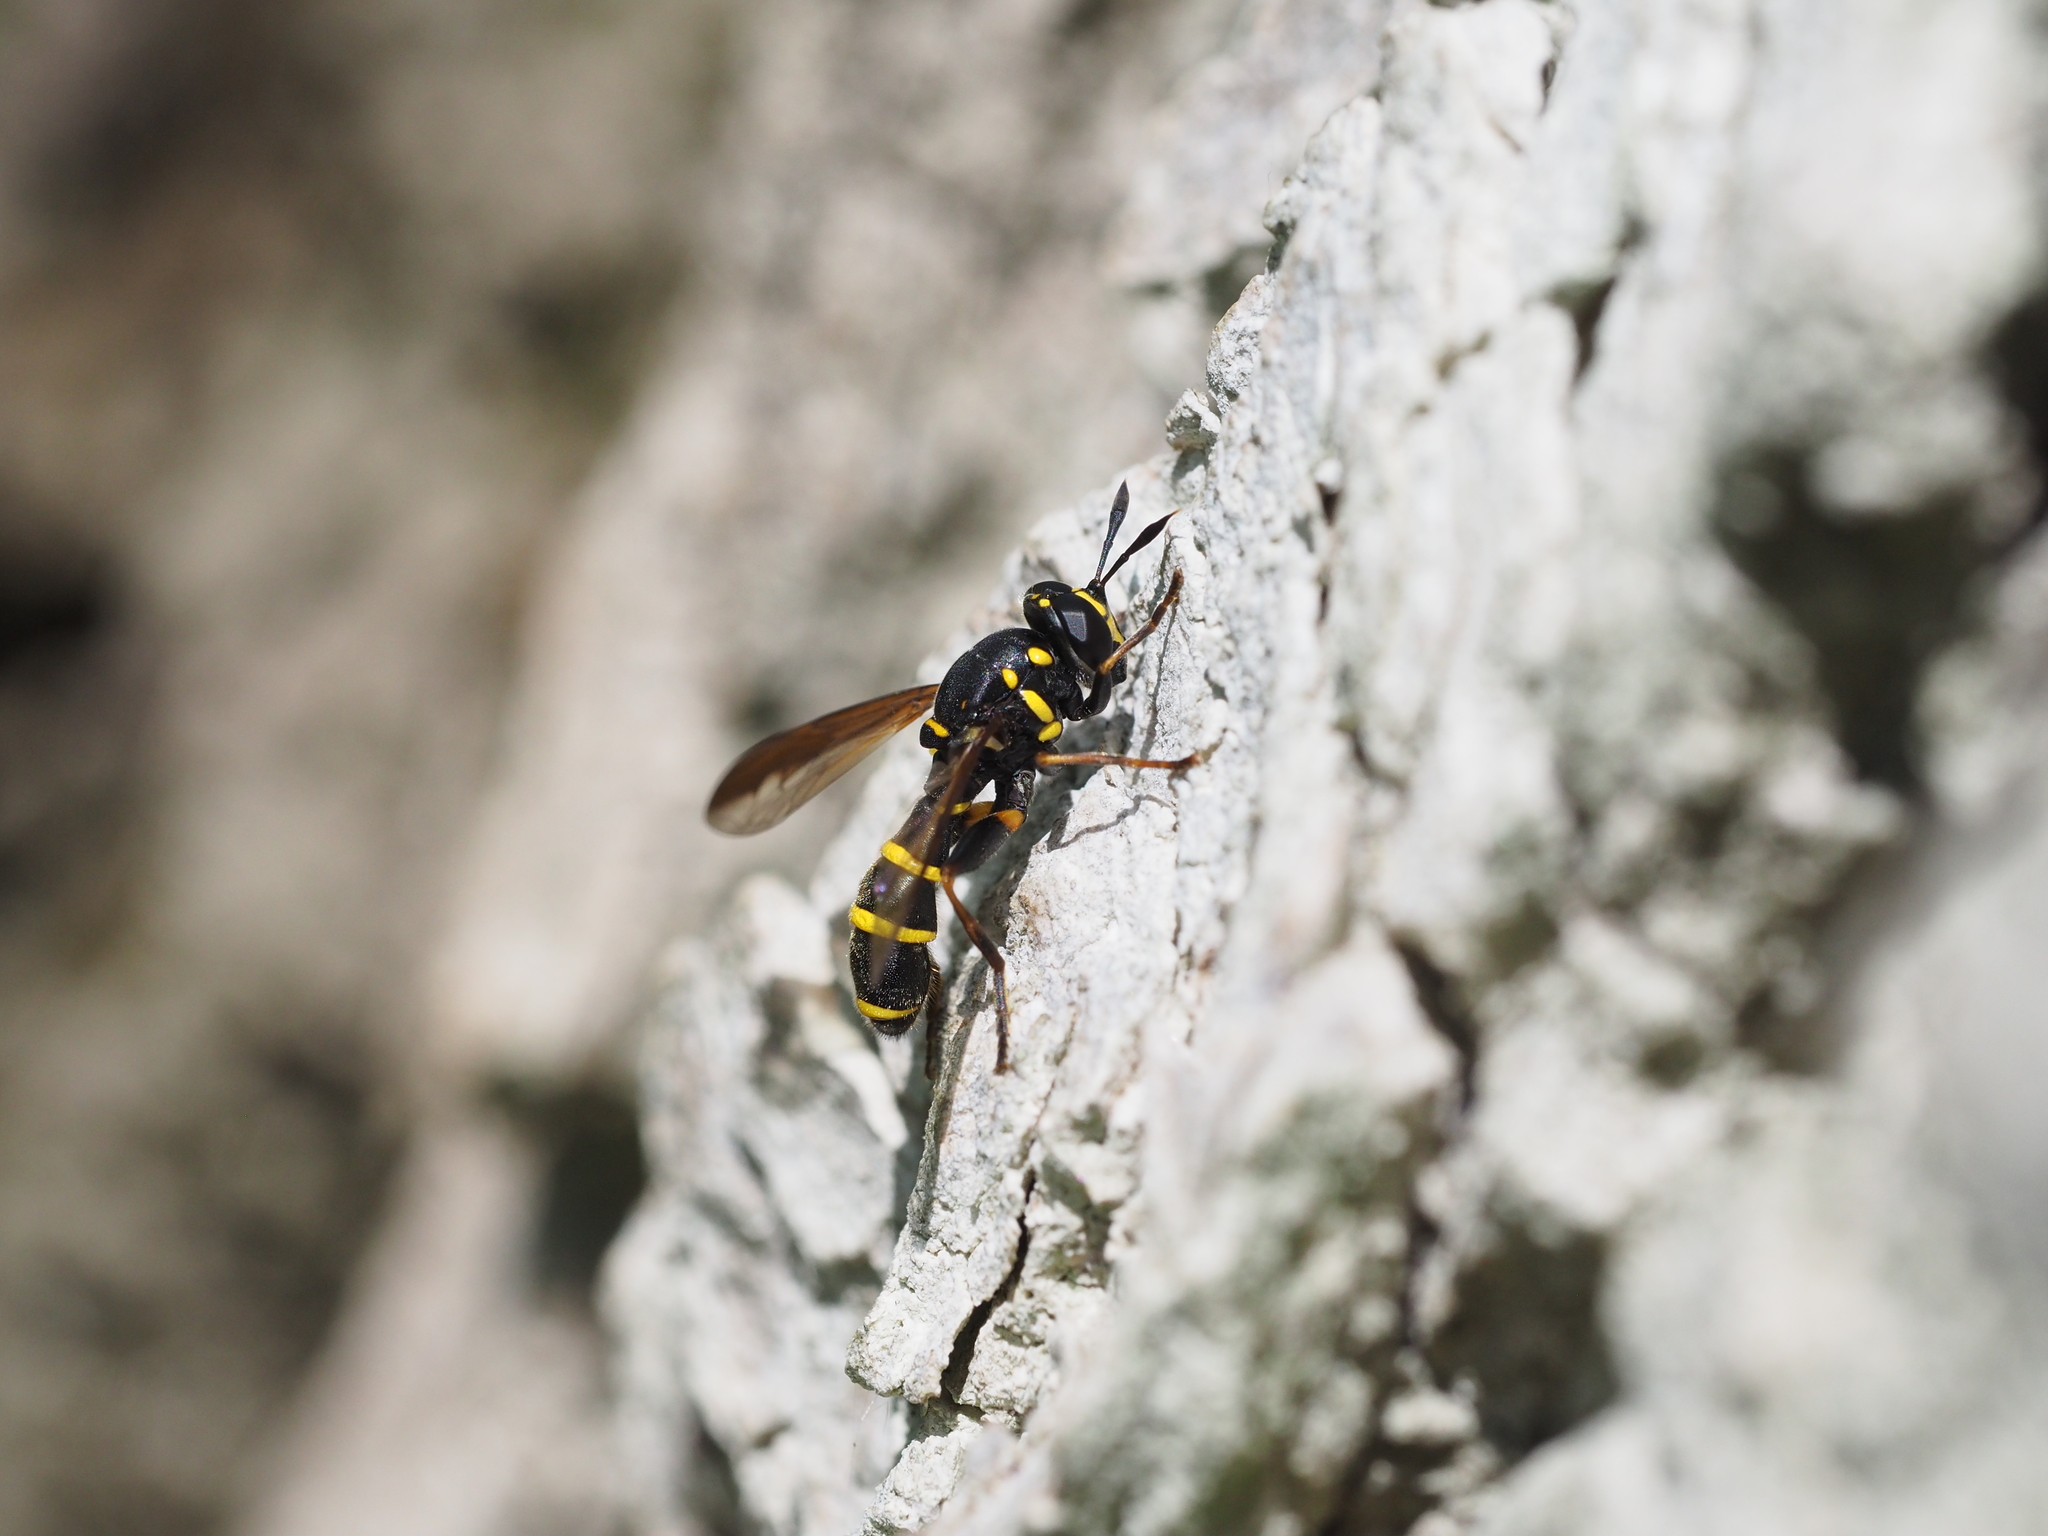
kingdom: Animalia
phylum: Arthropoda
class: Insecta
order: Diptera
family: Syrphidae
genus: Sphiximorpha
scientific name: Sphiximorpha subsessilis
